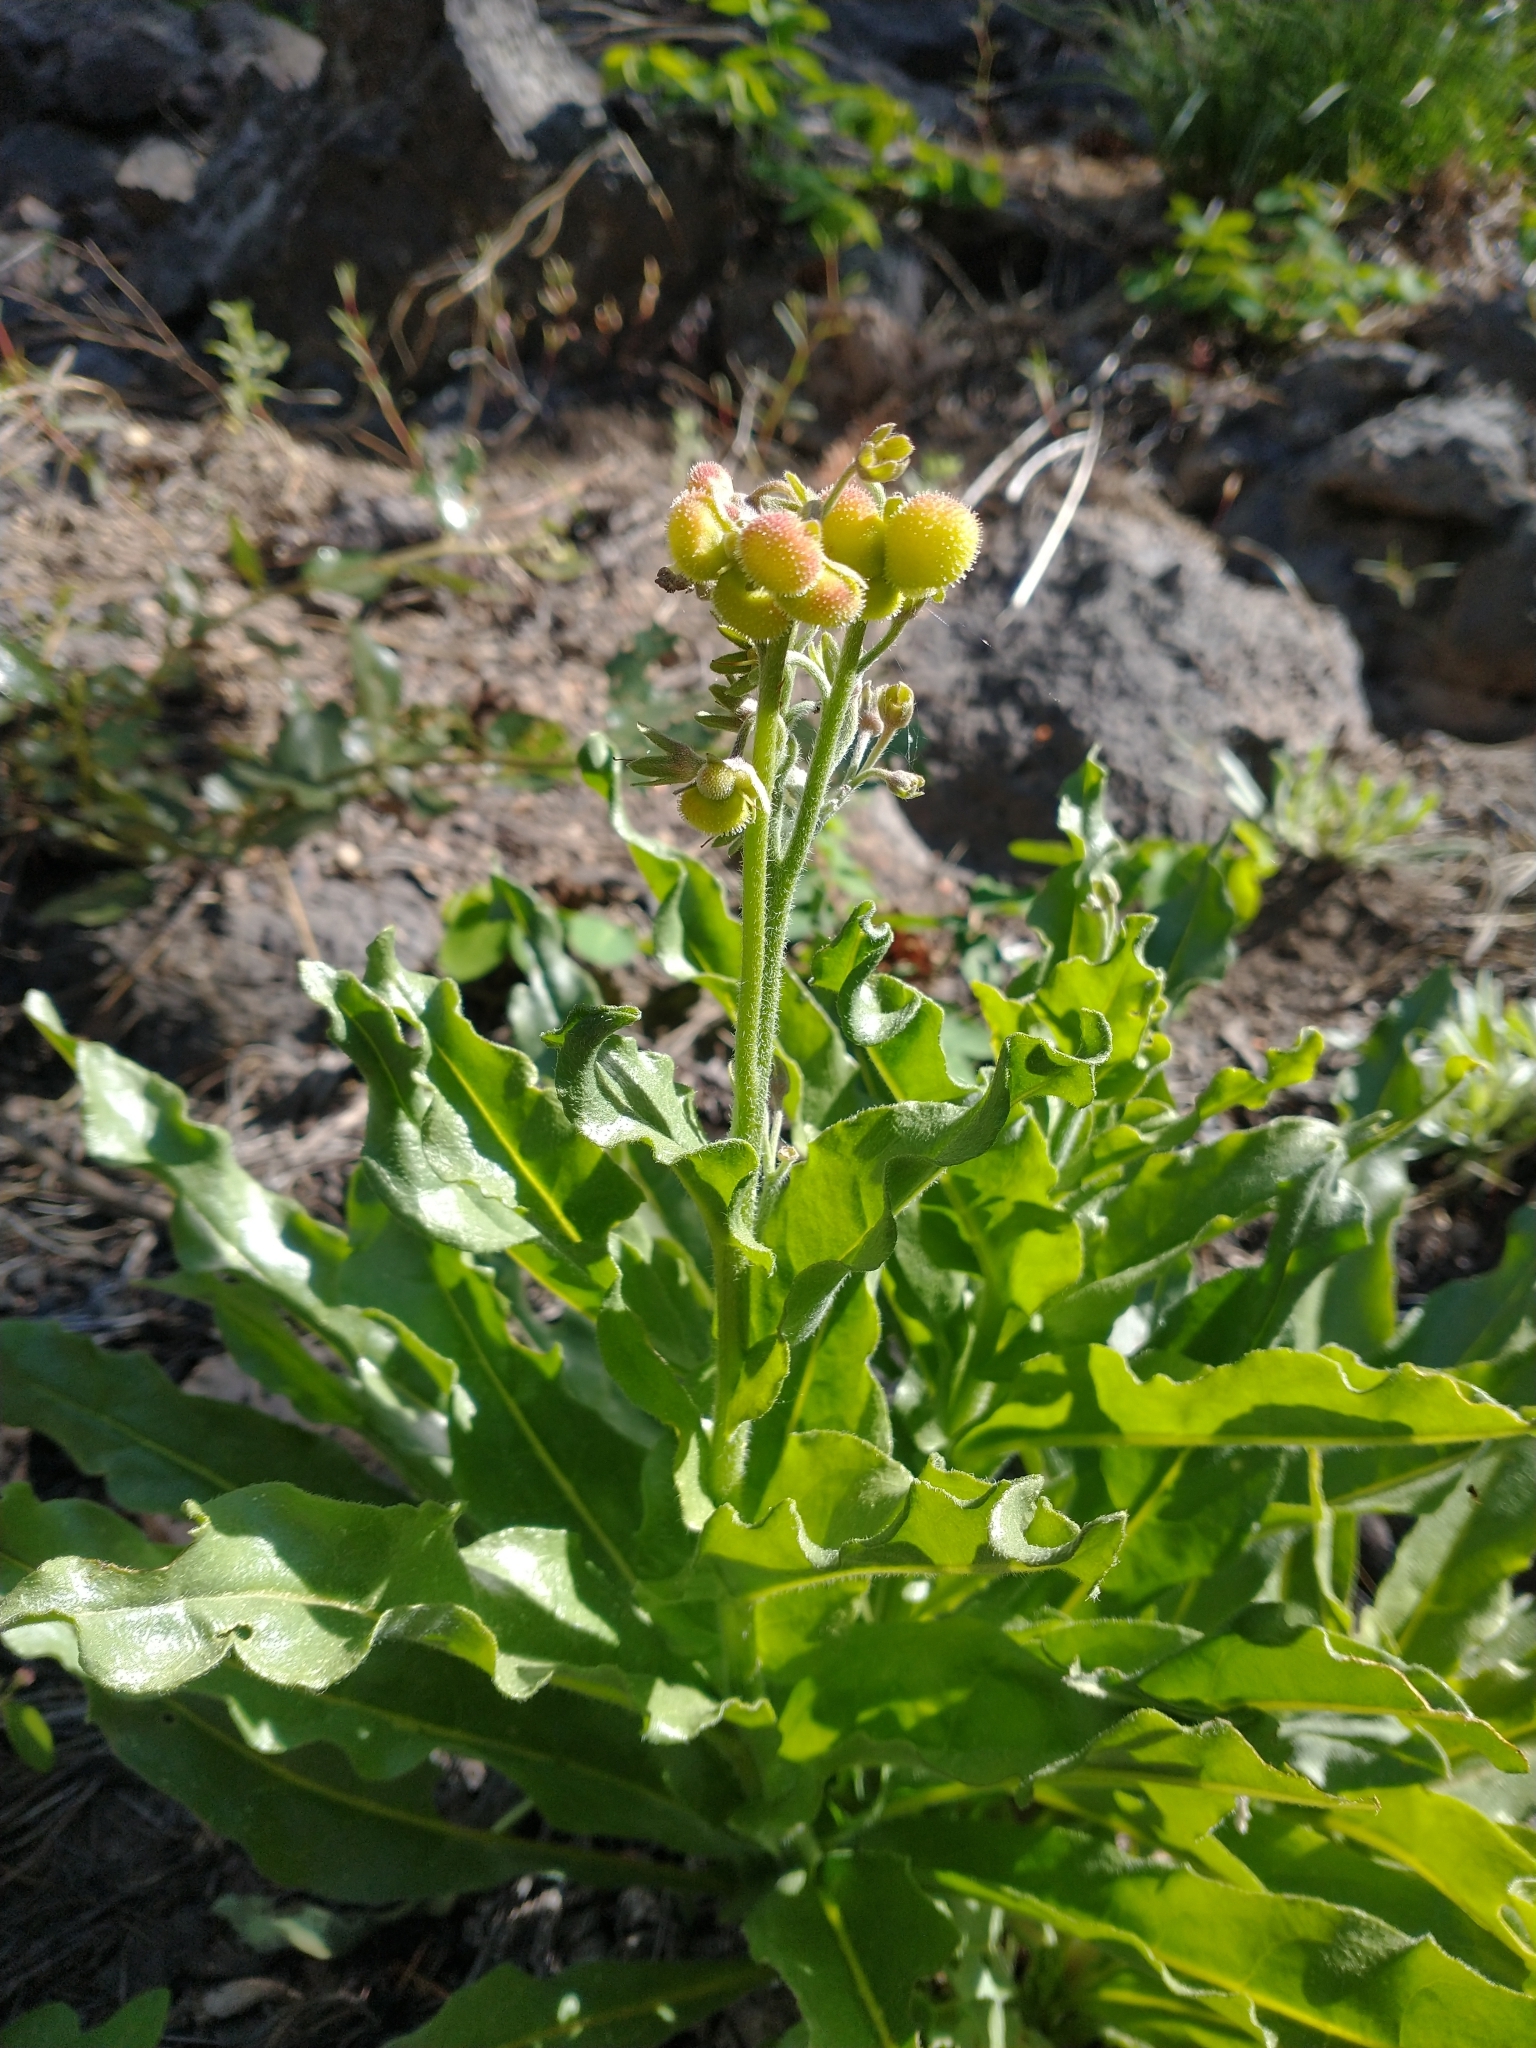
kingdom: Plantae
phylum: Tracheophyta
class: Magnoliopsida
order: Boraginales
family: Boraginaceae
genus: Andersonglossum
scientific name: Andersonglossum occidentale
